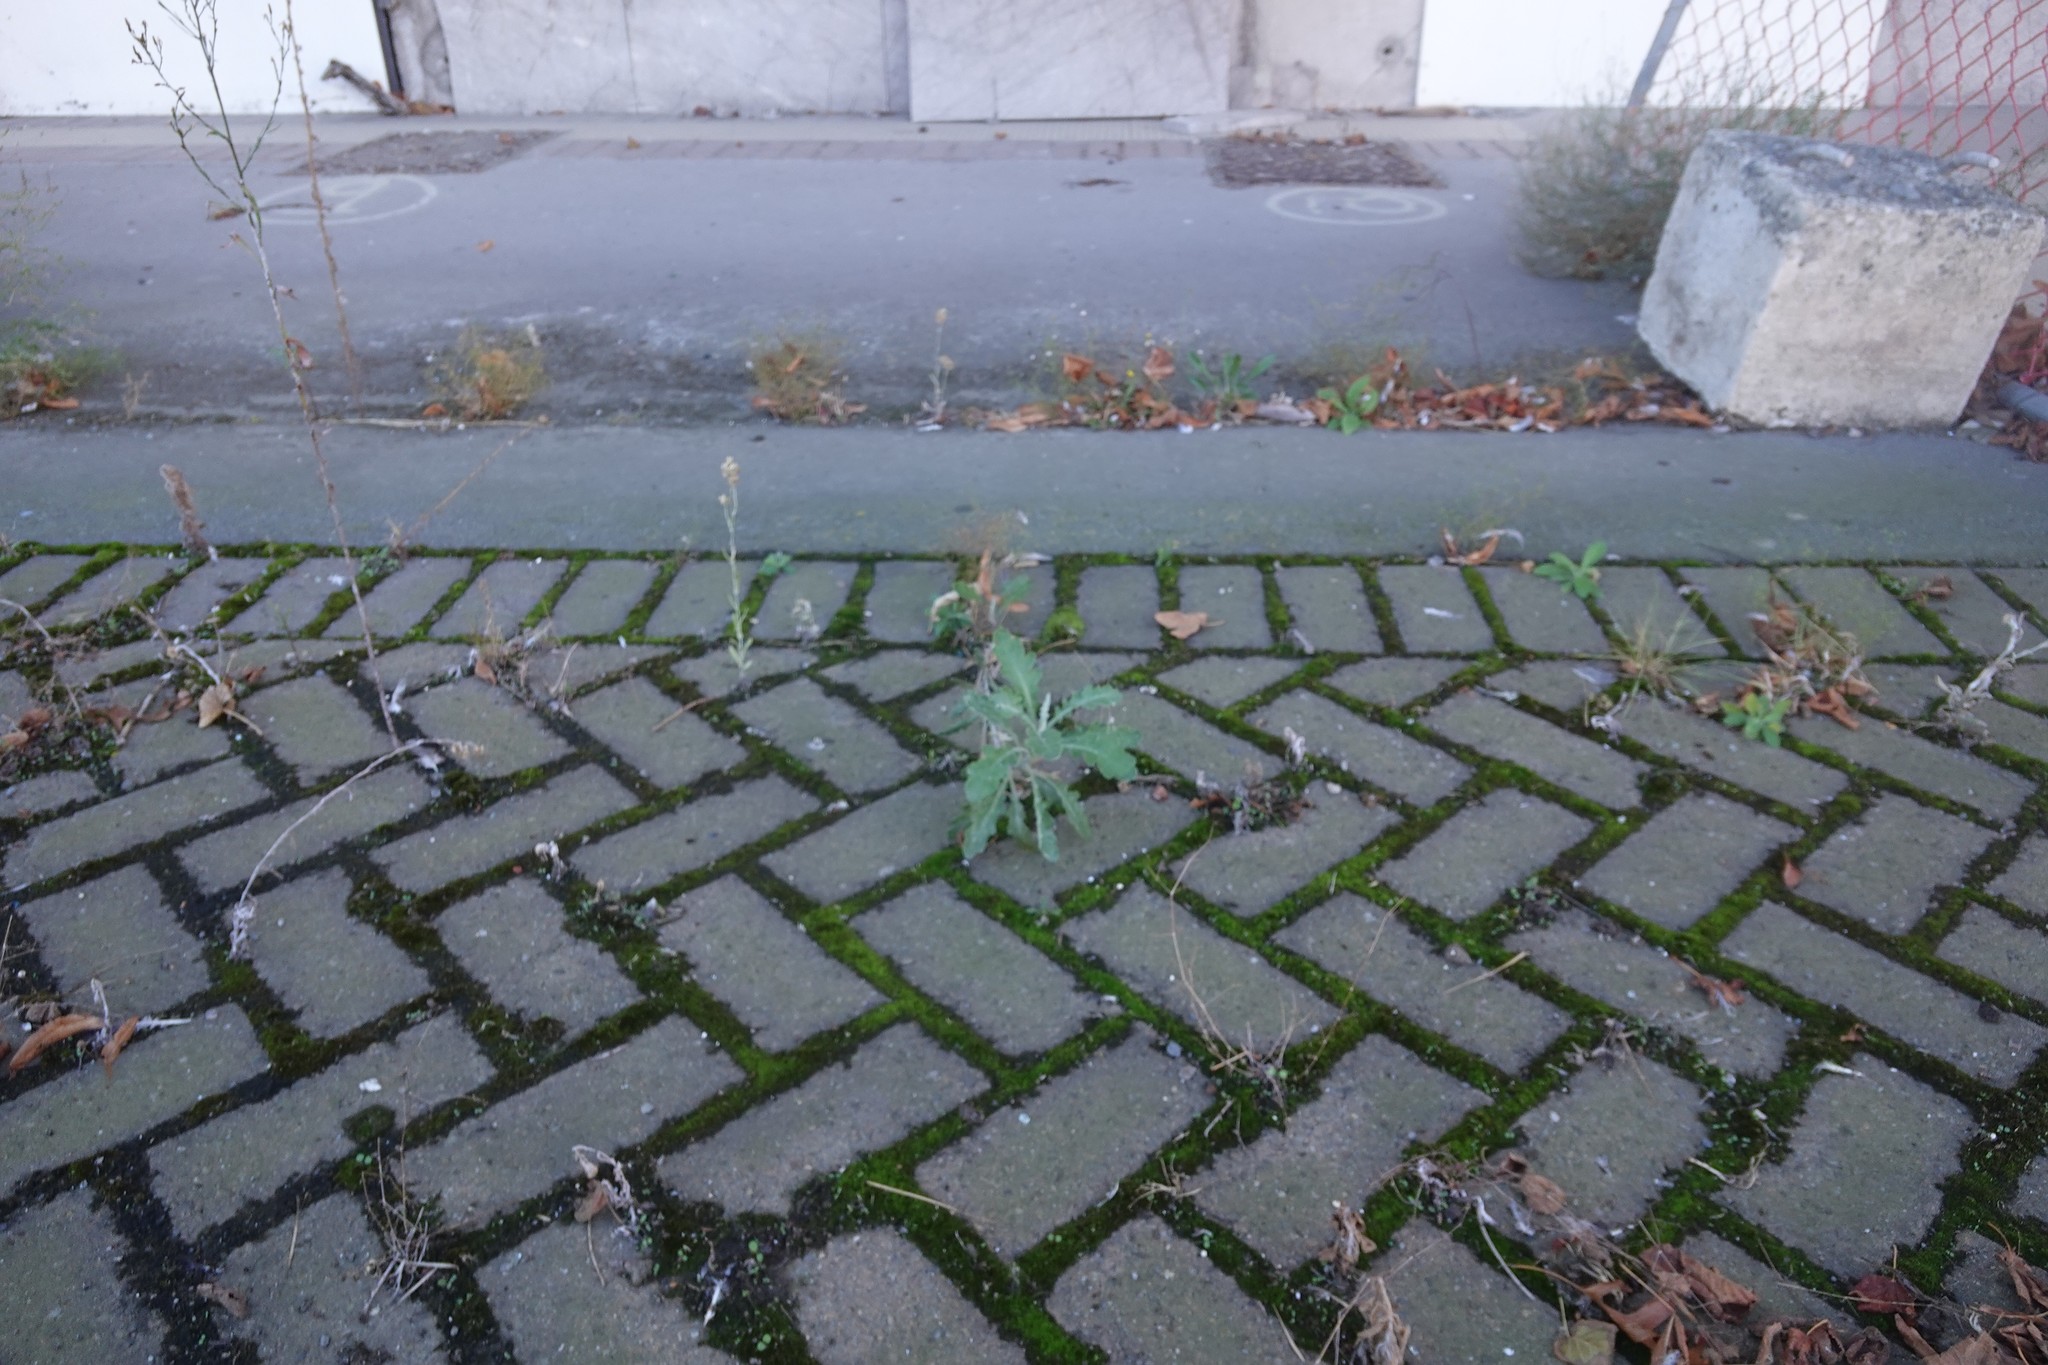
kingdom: Plantae
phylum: Tracheophyta
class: Magnoliopsida
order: Asterales
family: Asteraceae
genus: Senecio
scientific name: Senecio glomeratus
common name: Cutleaf burnweed
